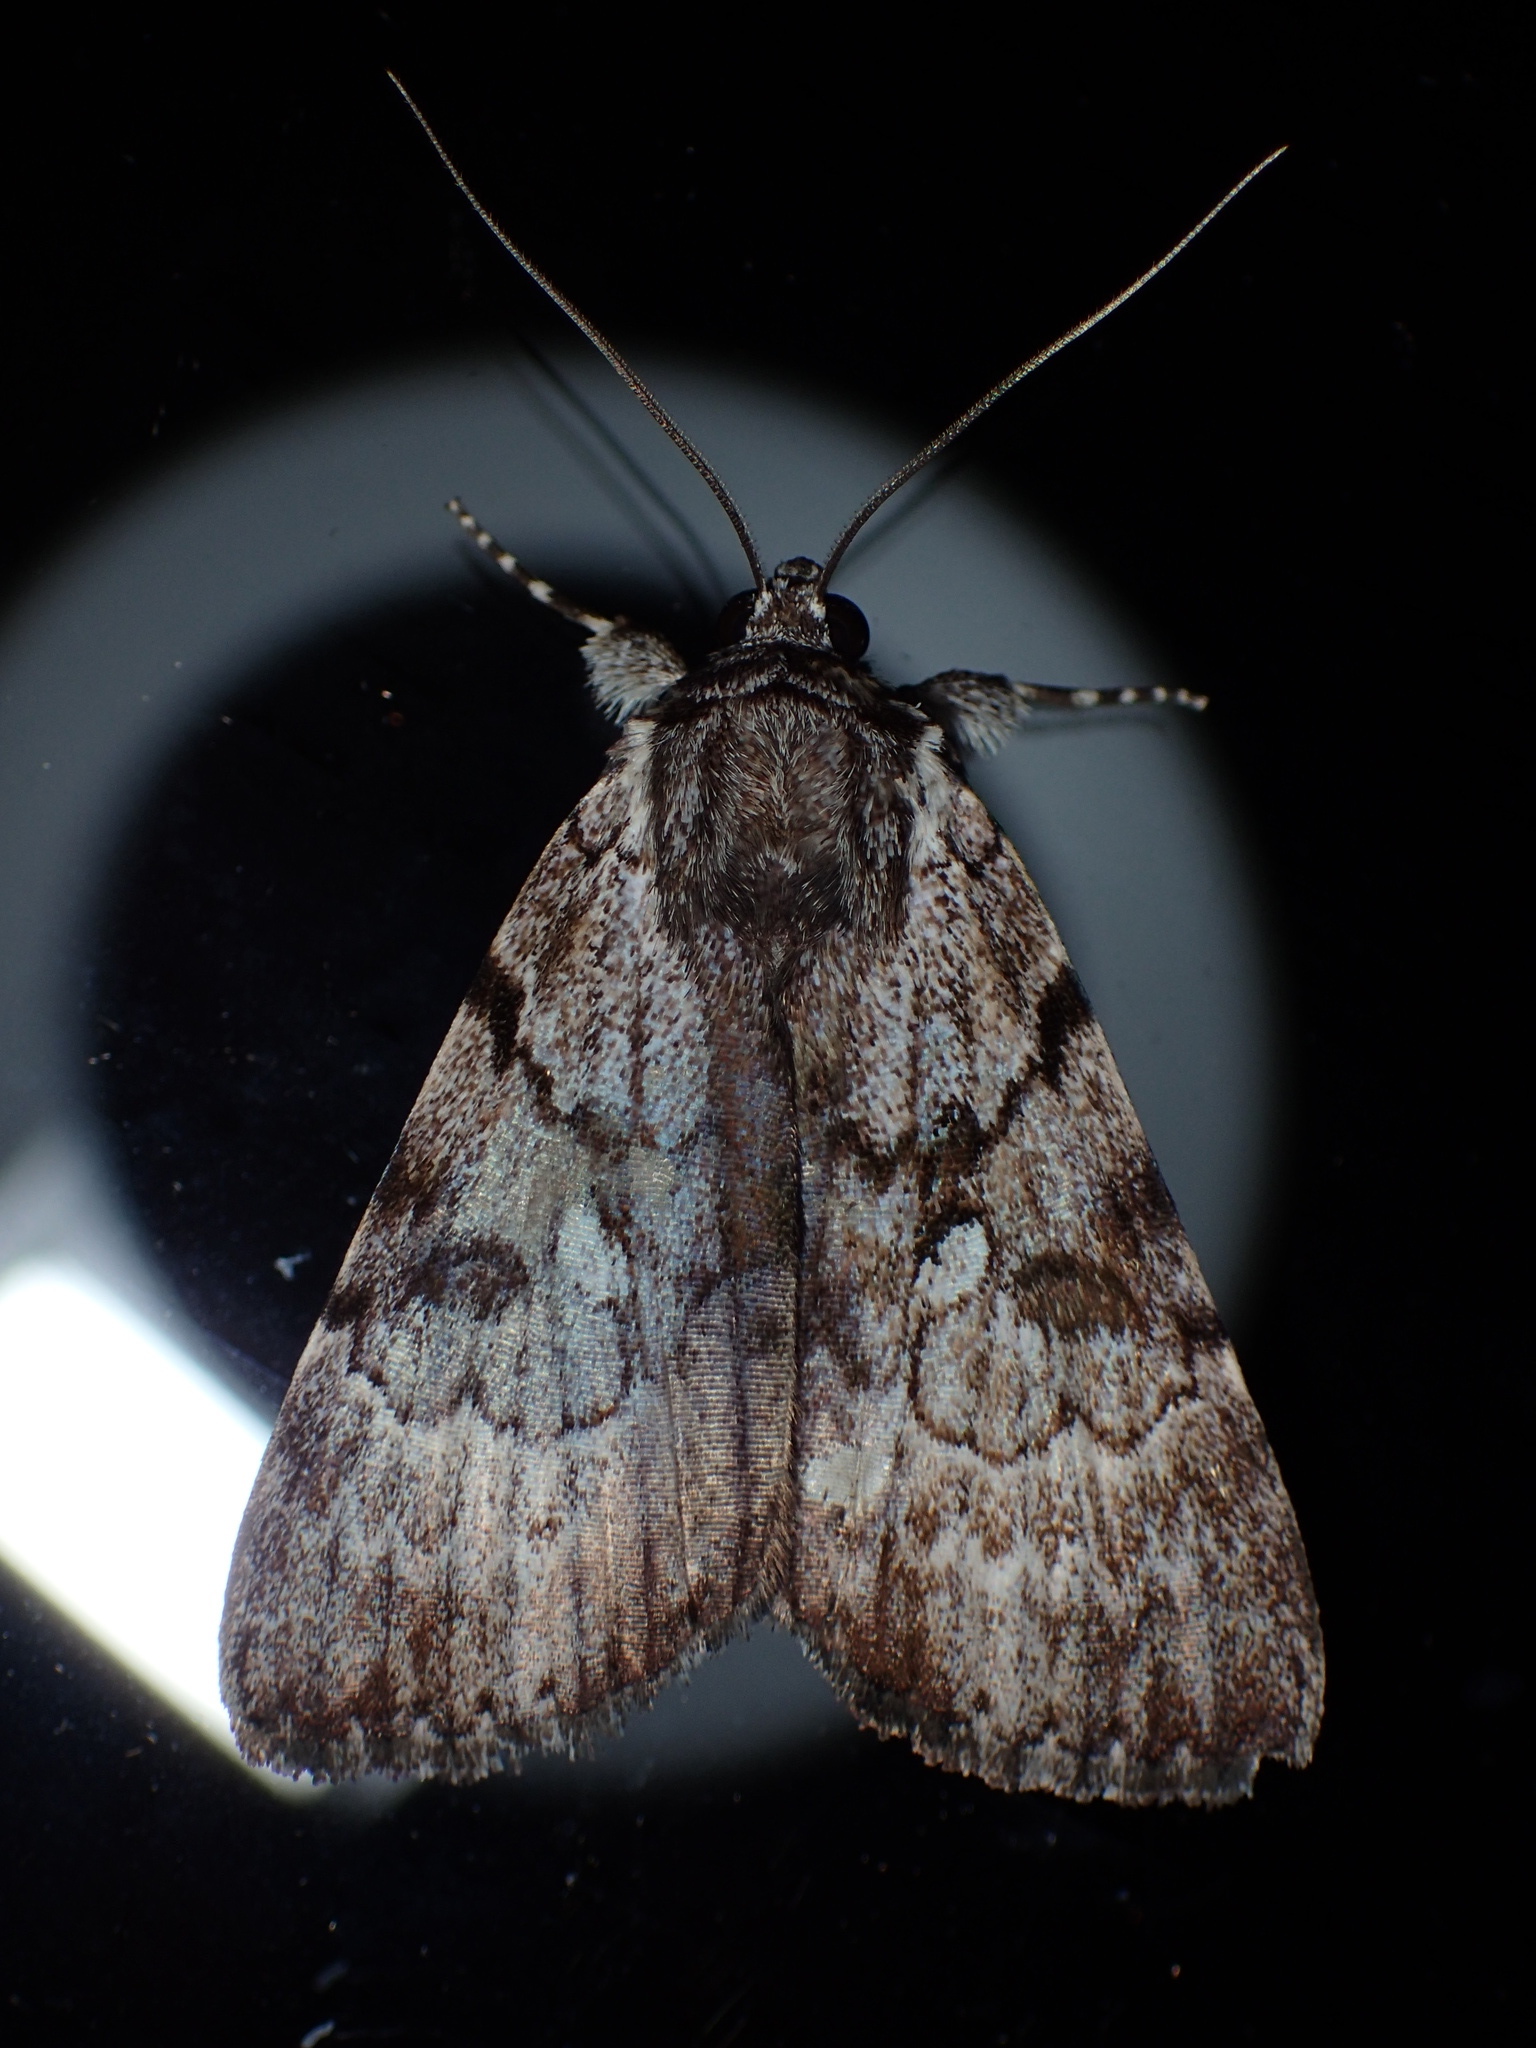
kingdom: Animalia
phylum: Arthropoda
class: Insecta
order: Lepidoptera
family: Erebidae
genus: Catocala
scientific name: Catocala andromedae
